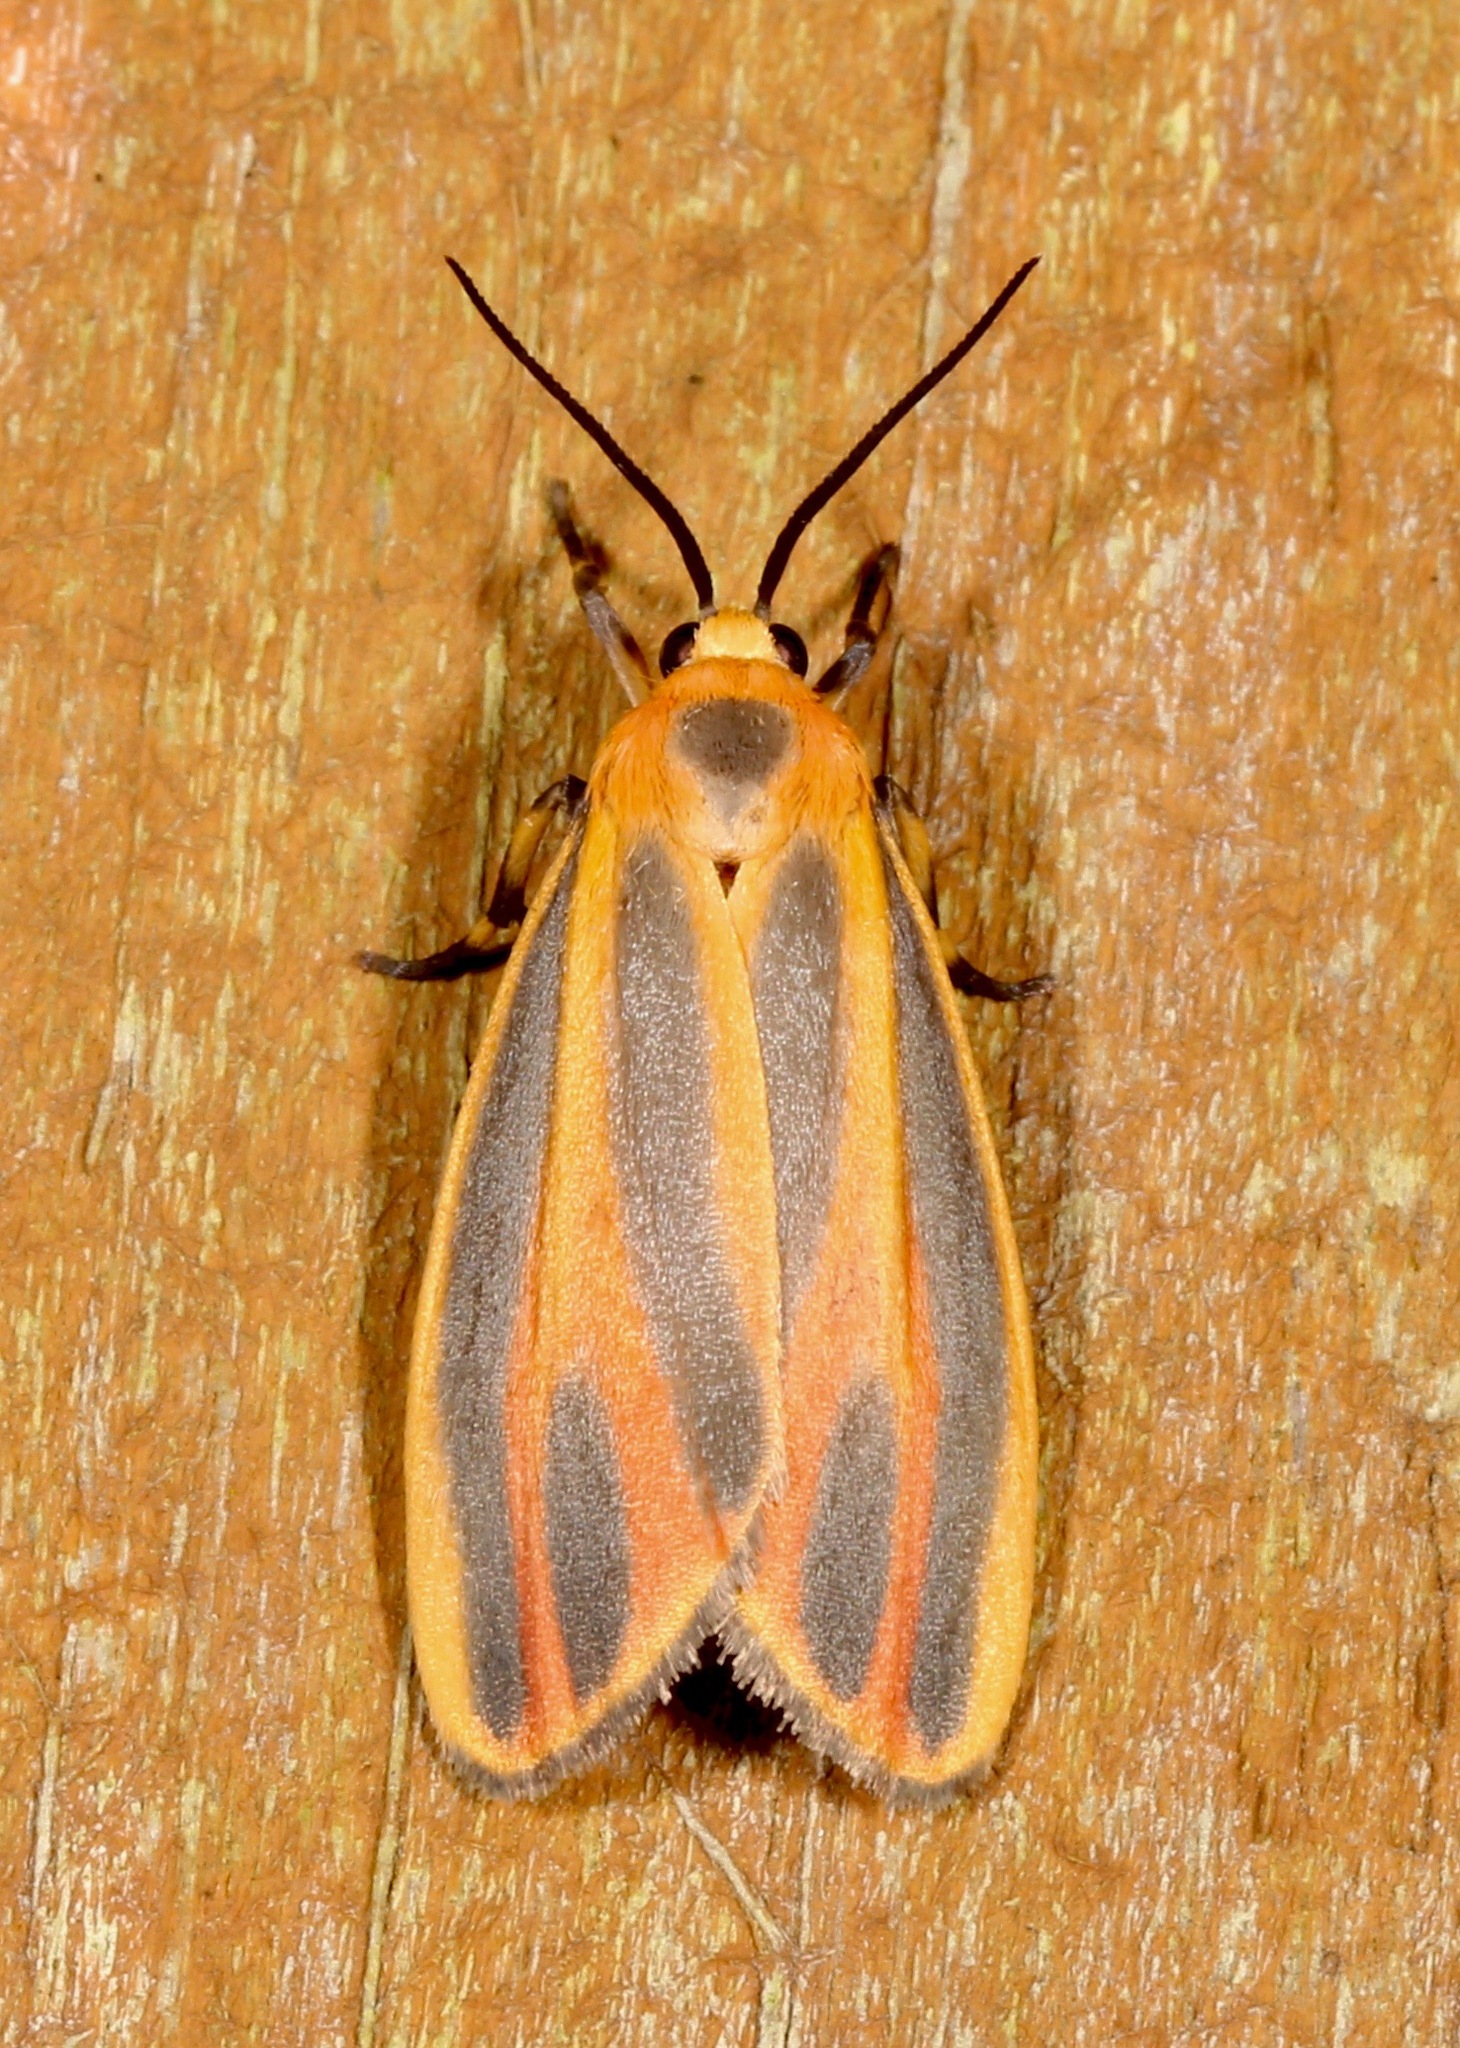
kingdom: Animalia
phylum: Arthropoda
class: Insecta
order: Lepidoptera
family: Erebidae
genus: Hypoprepia
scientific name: Hypoprepia fucosa
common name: Painted lichen moth
